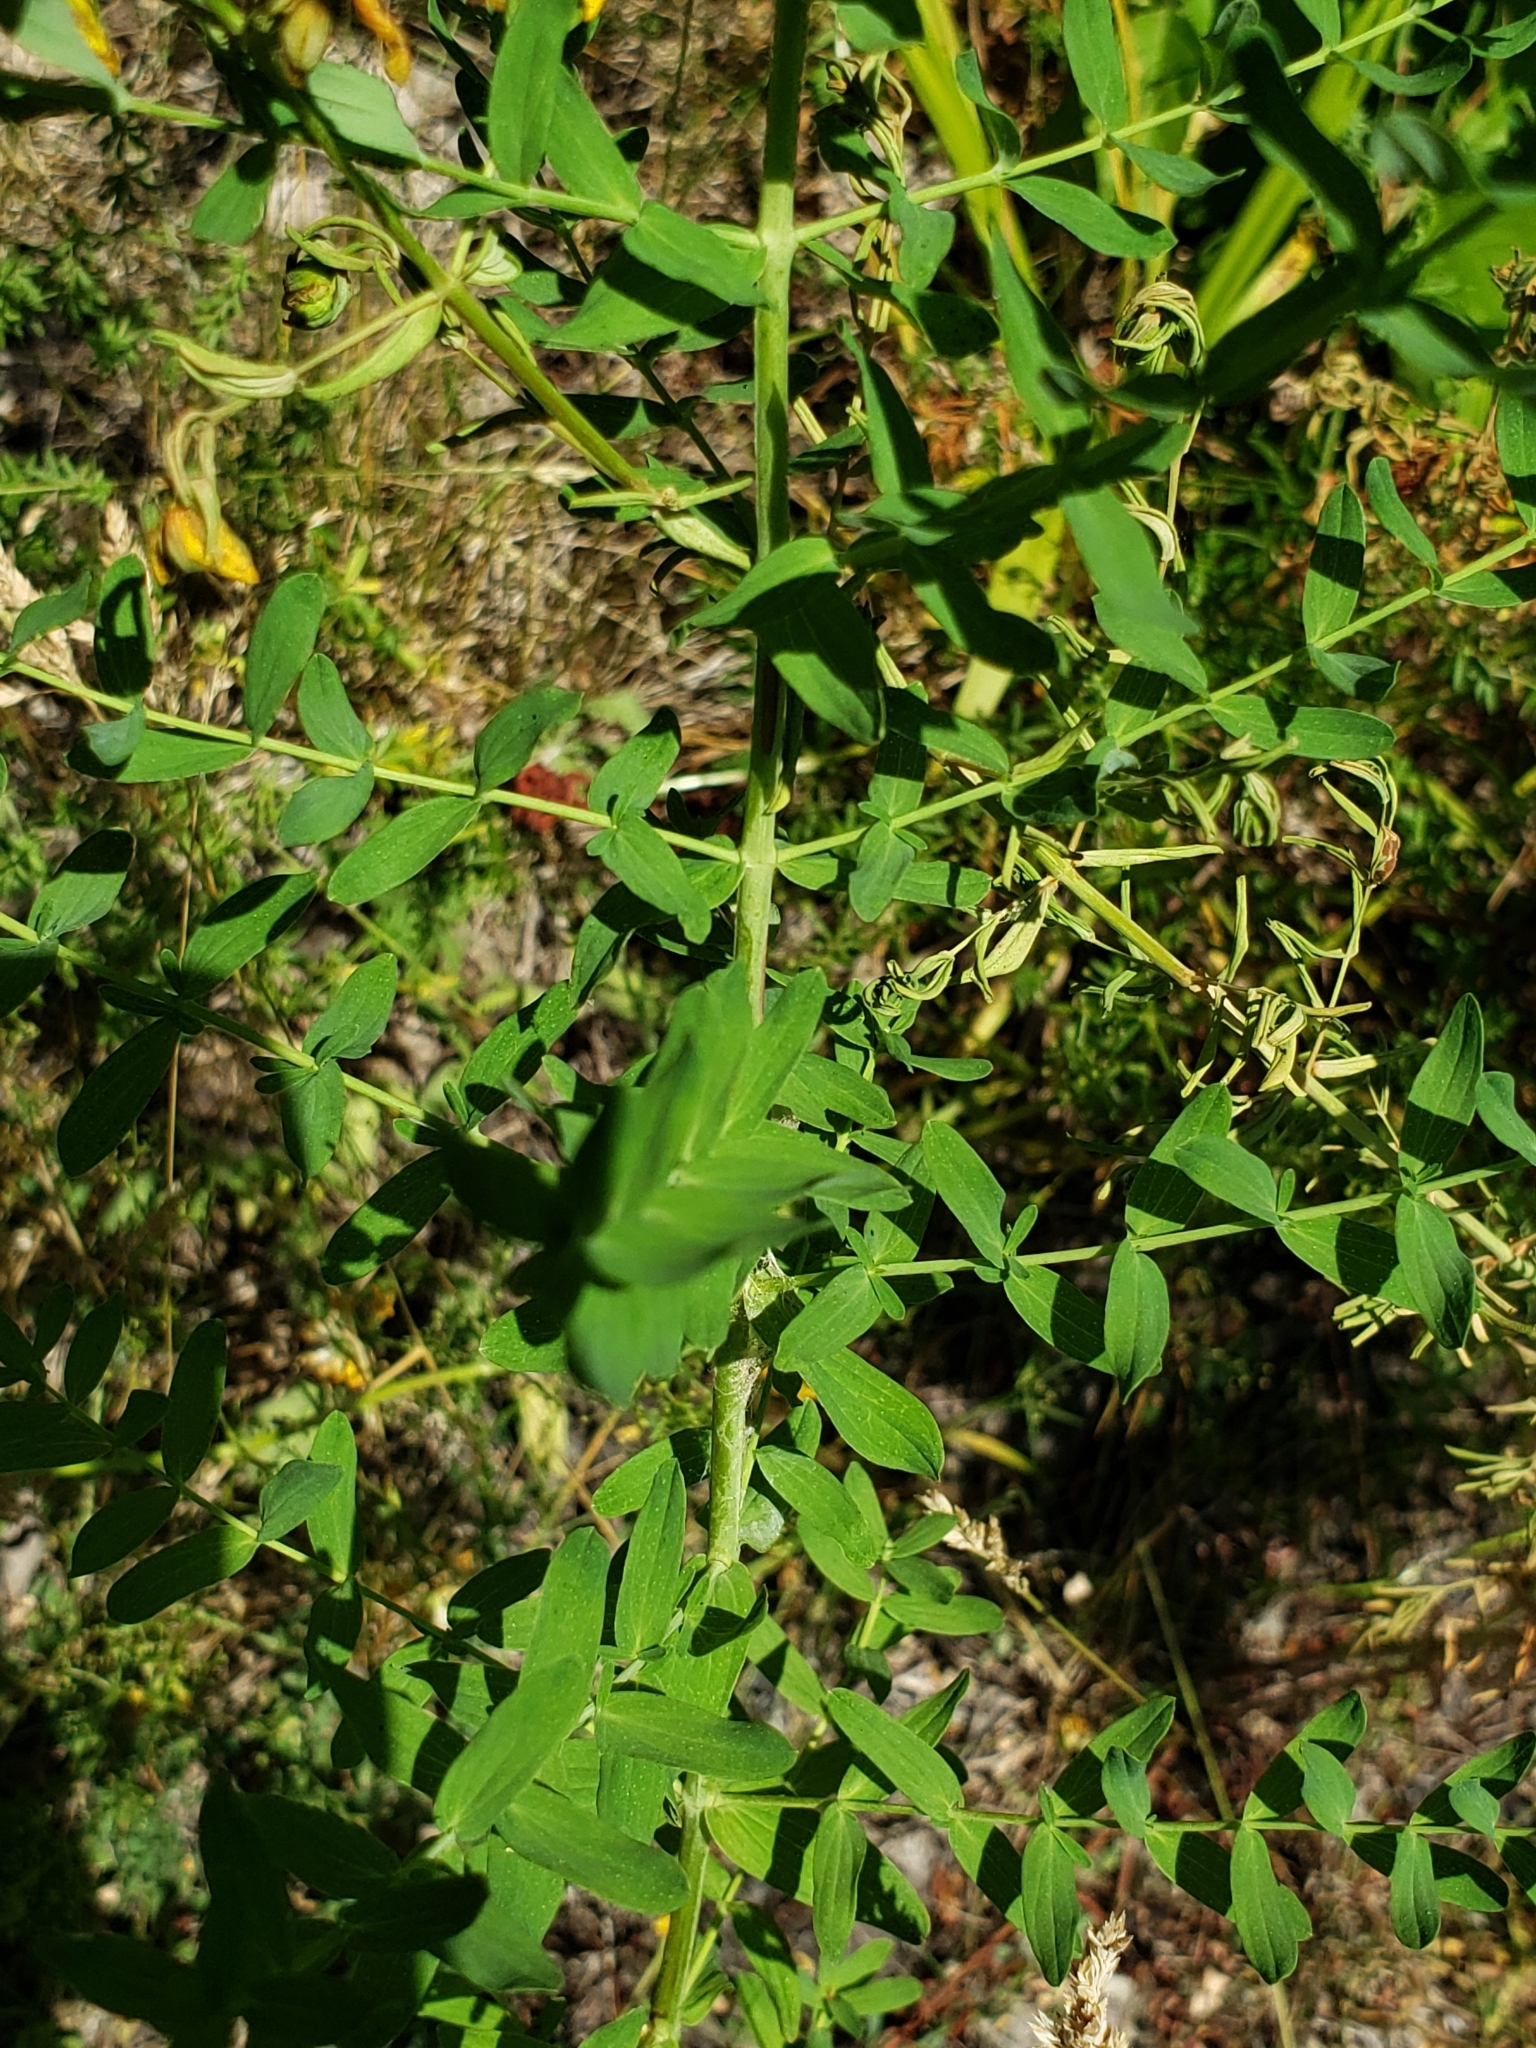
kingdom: Plantae
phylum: Tracheophyta
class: Magnoliopsida
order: Malpighiales
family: Hypericaceae
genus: Hypericum
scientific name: Hypericum perforatum
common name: Common st. johnswort
